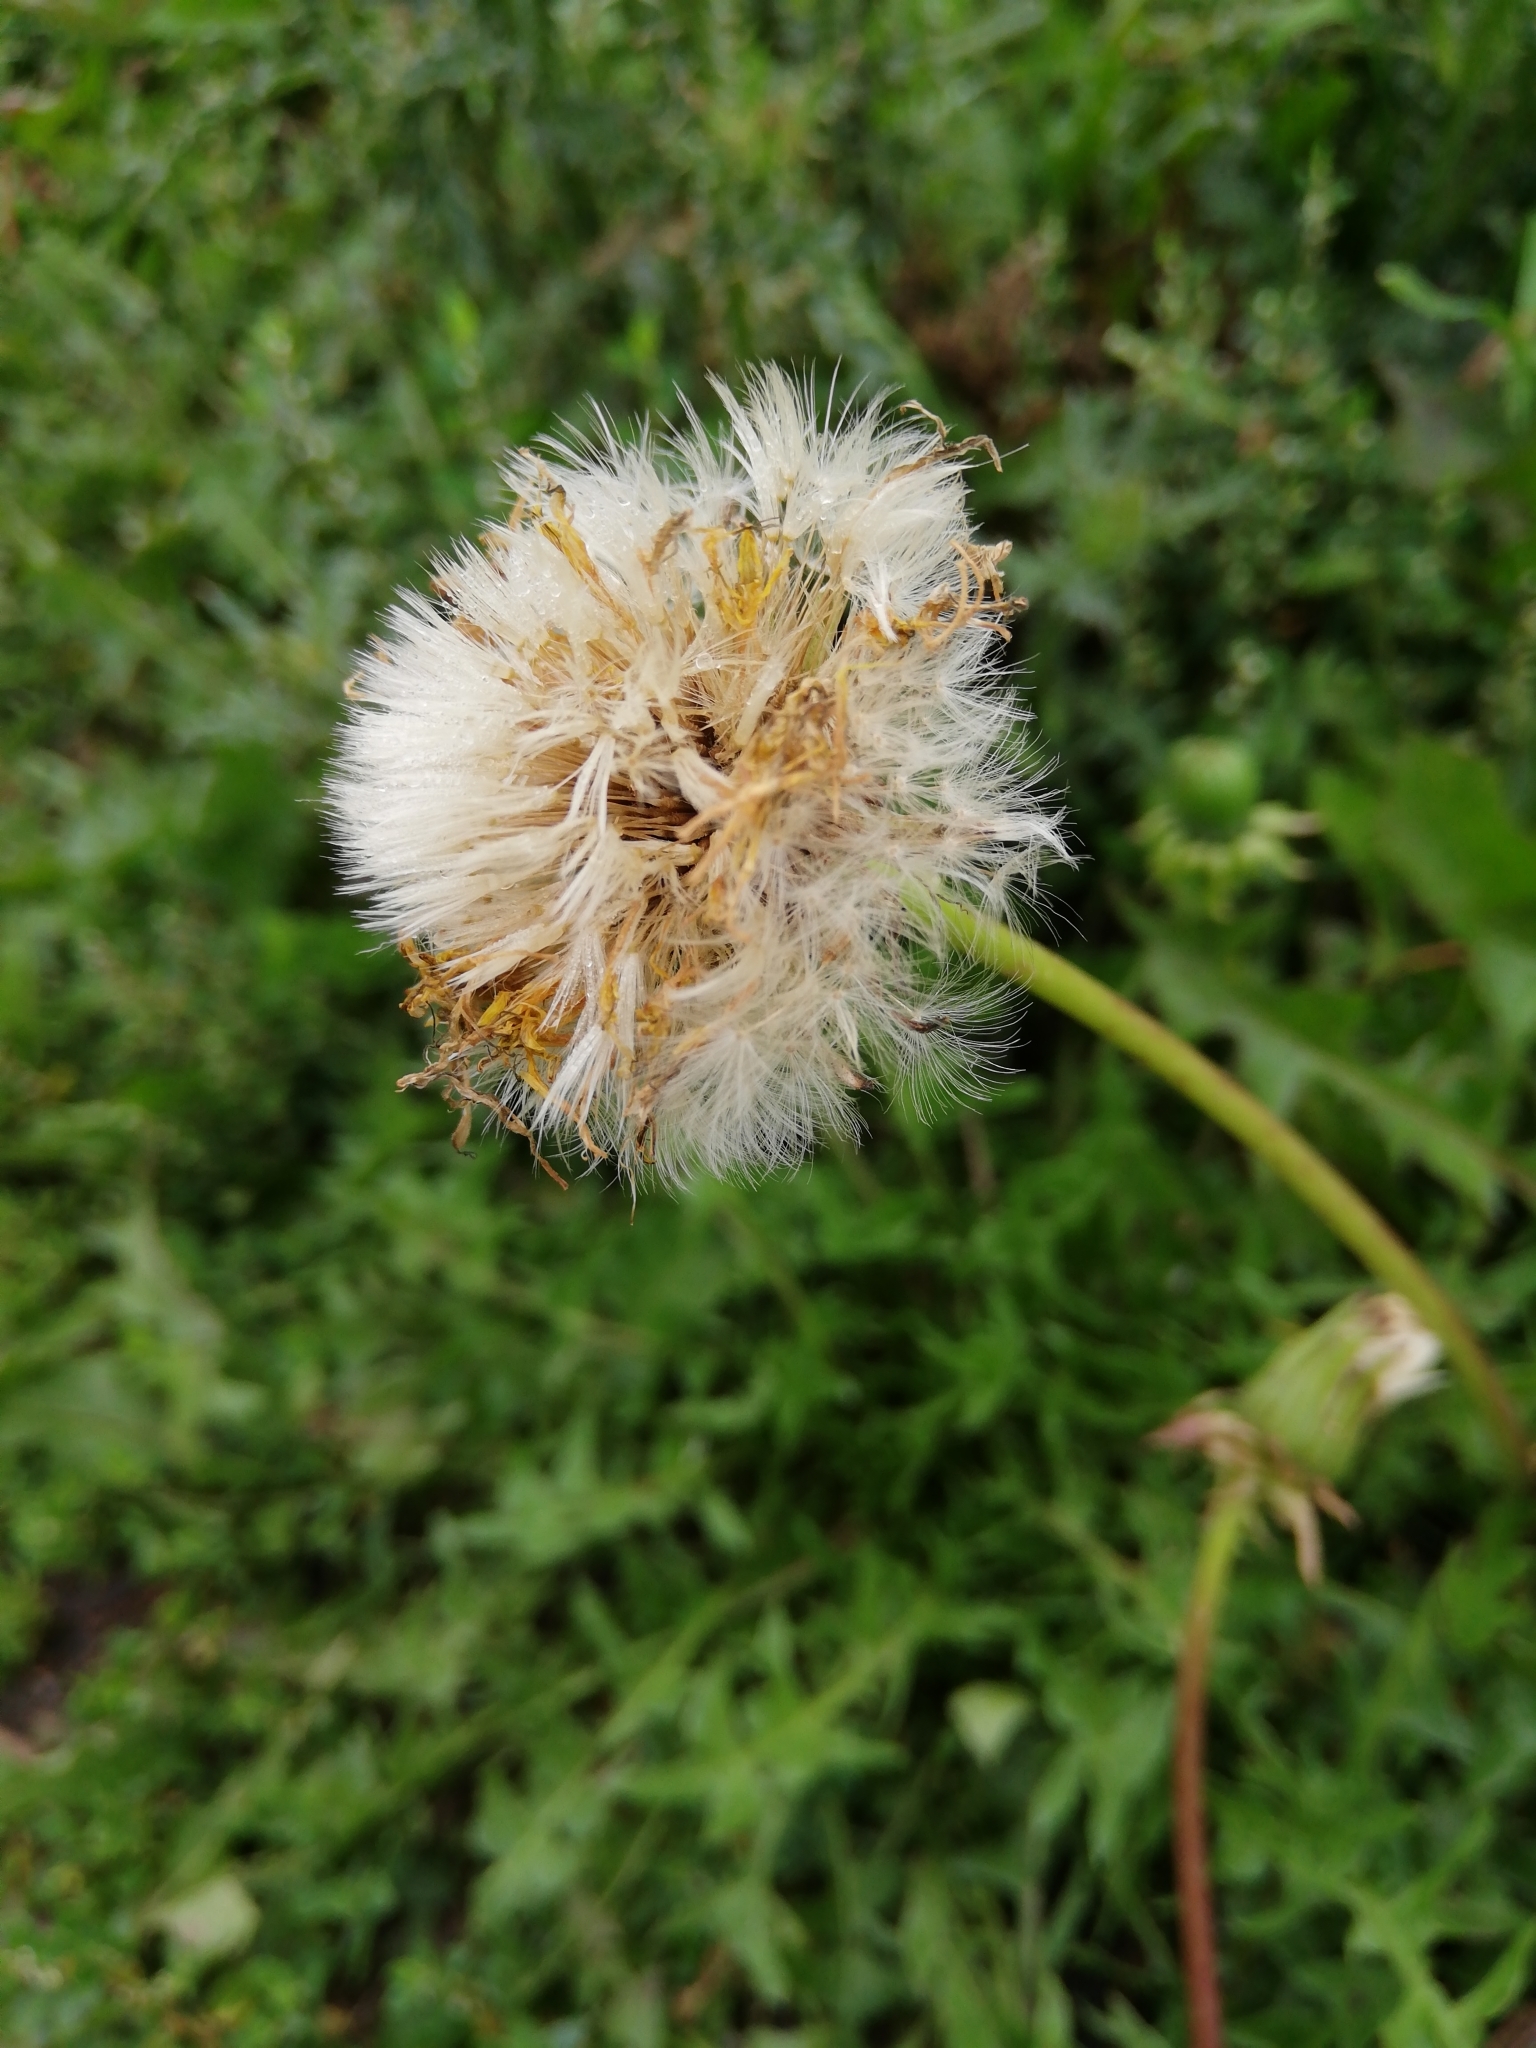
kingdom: Plantae
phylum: Tracheophyta
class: Magnoliopsida
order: Asterales
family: Asteraceae
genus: Taraxacum
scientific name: Taraxacum officinale
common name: Common dandelion
